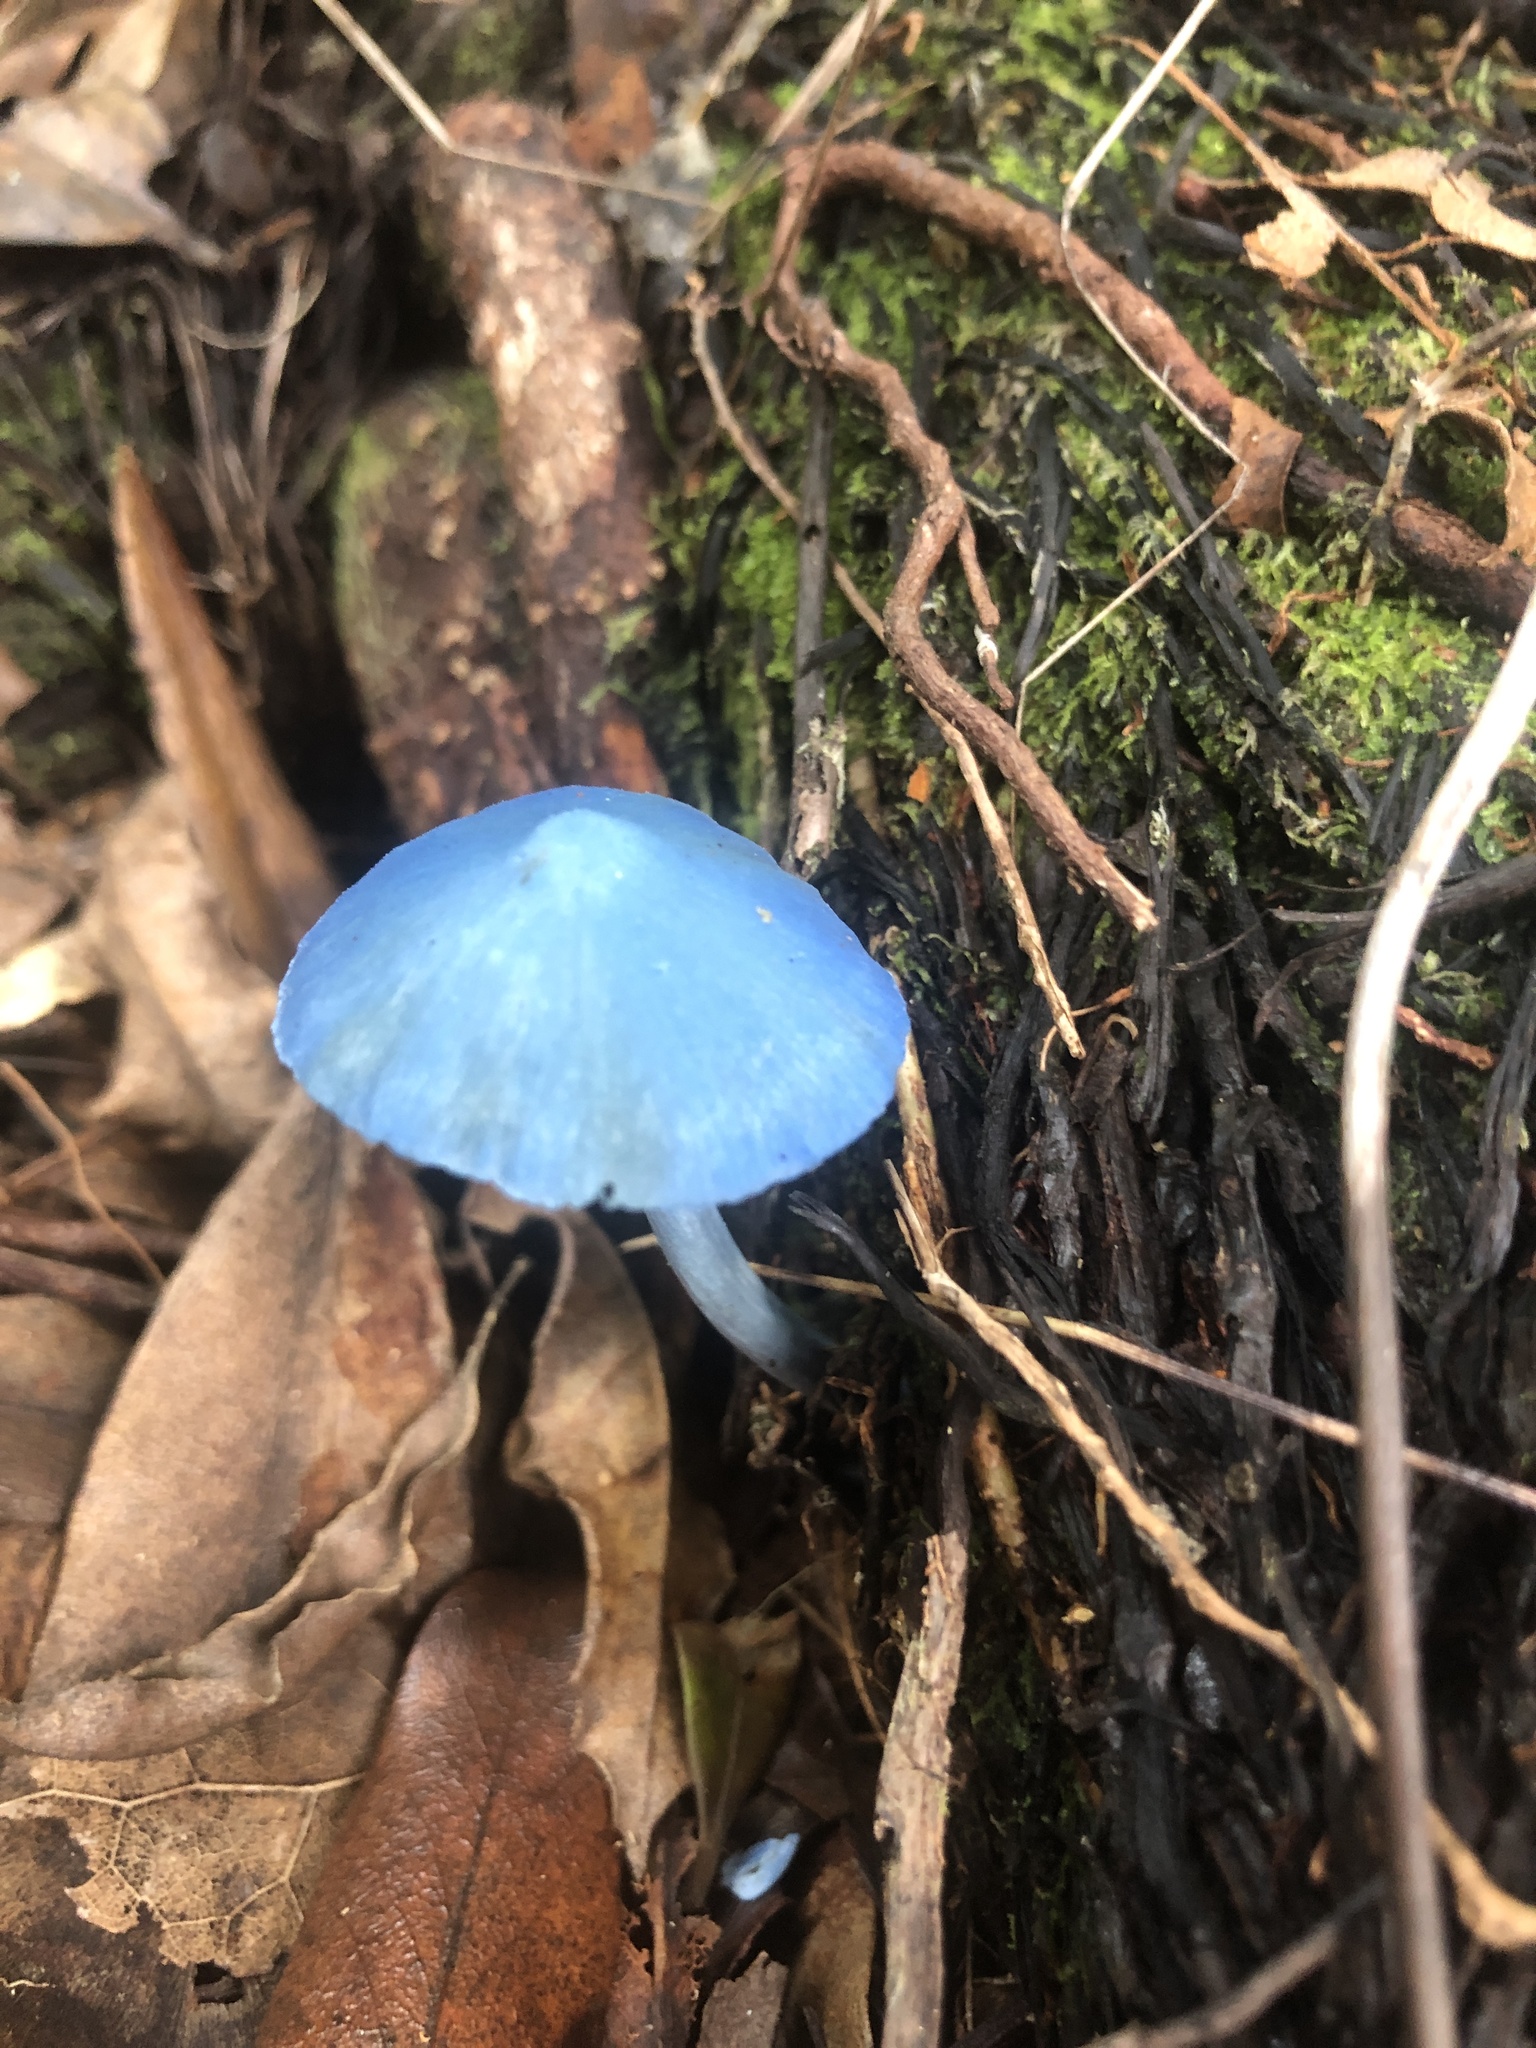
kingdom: Fungi
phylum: Basidiomycota
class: Agaricomycetes
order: Agaricales
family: Entolomataceae
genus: Entoloma
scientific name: Entoloma hochstetteri
